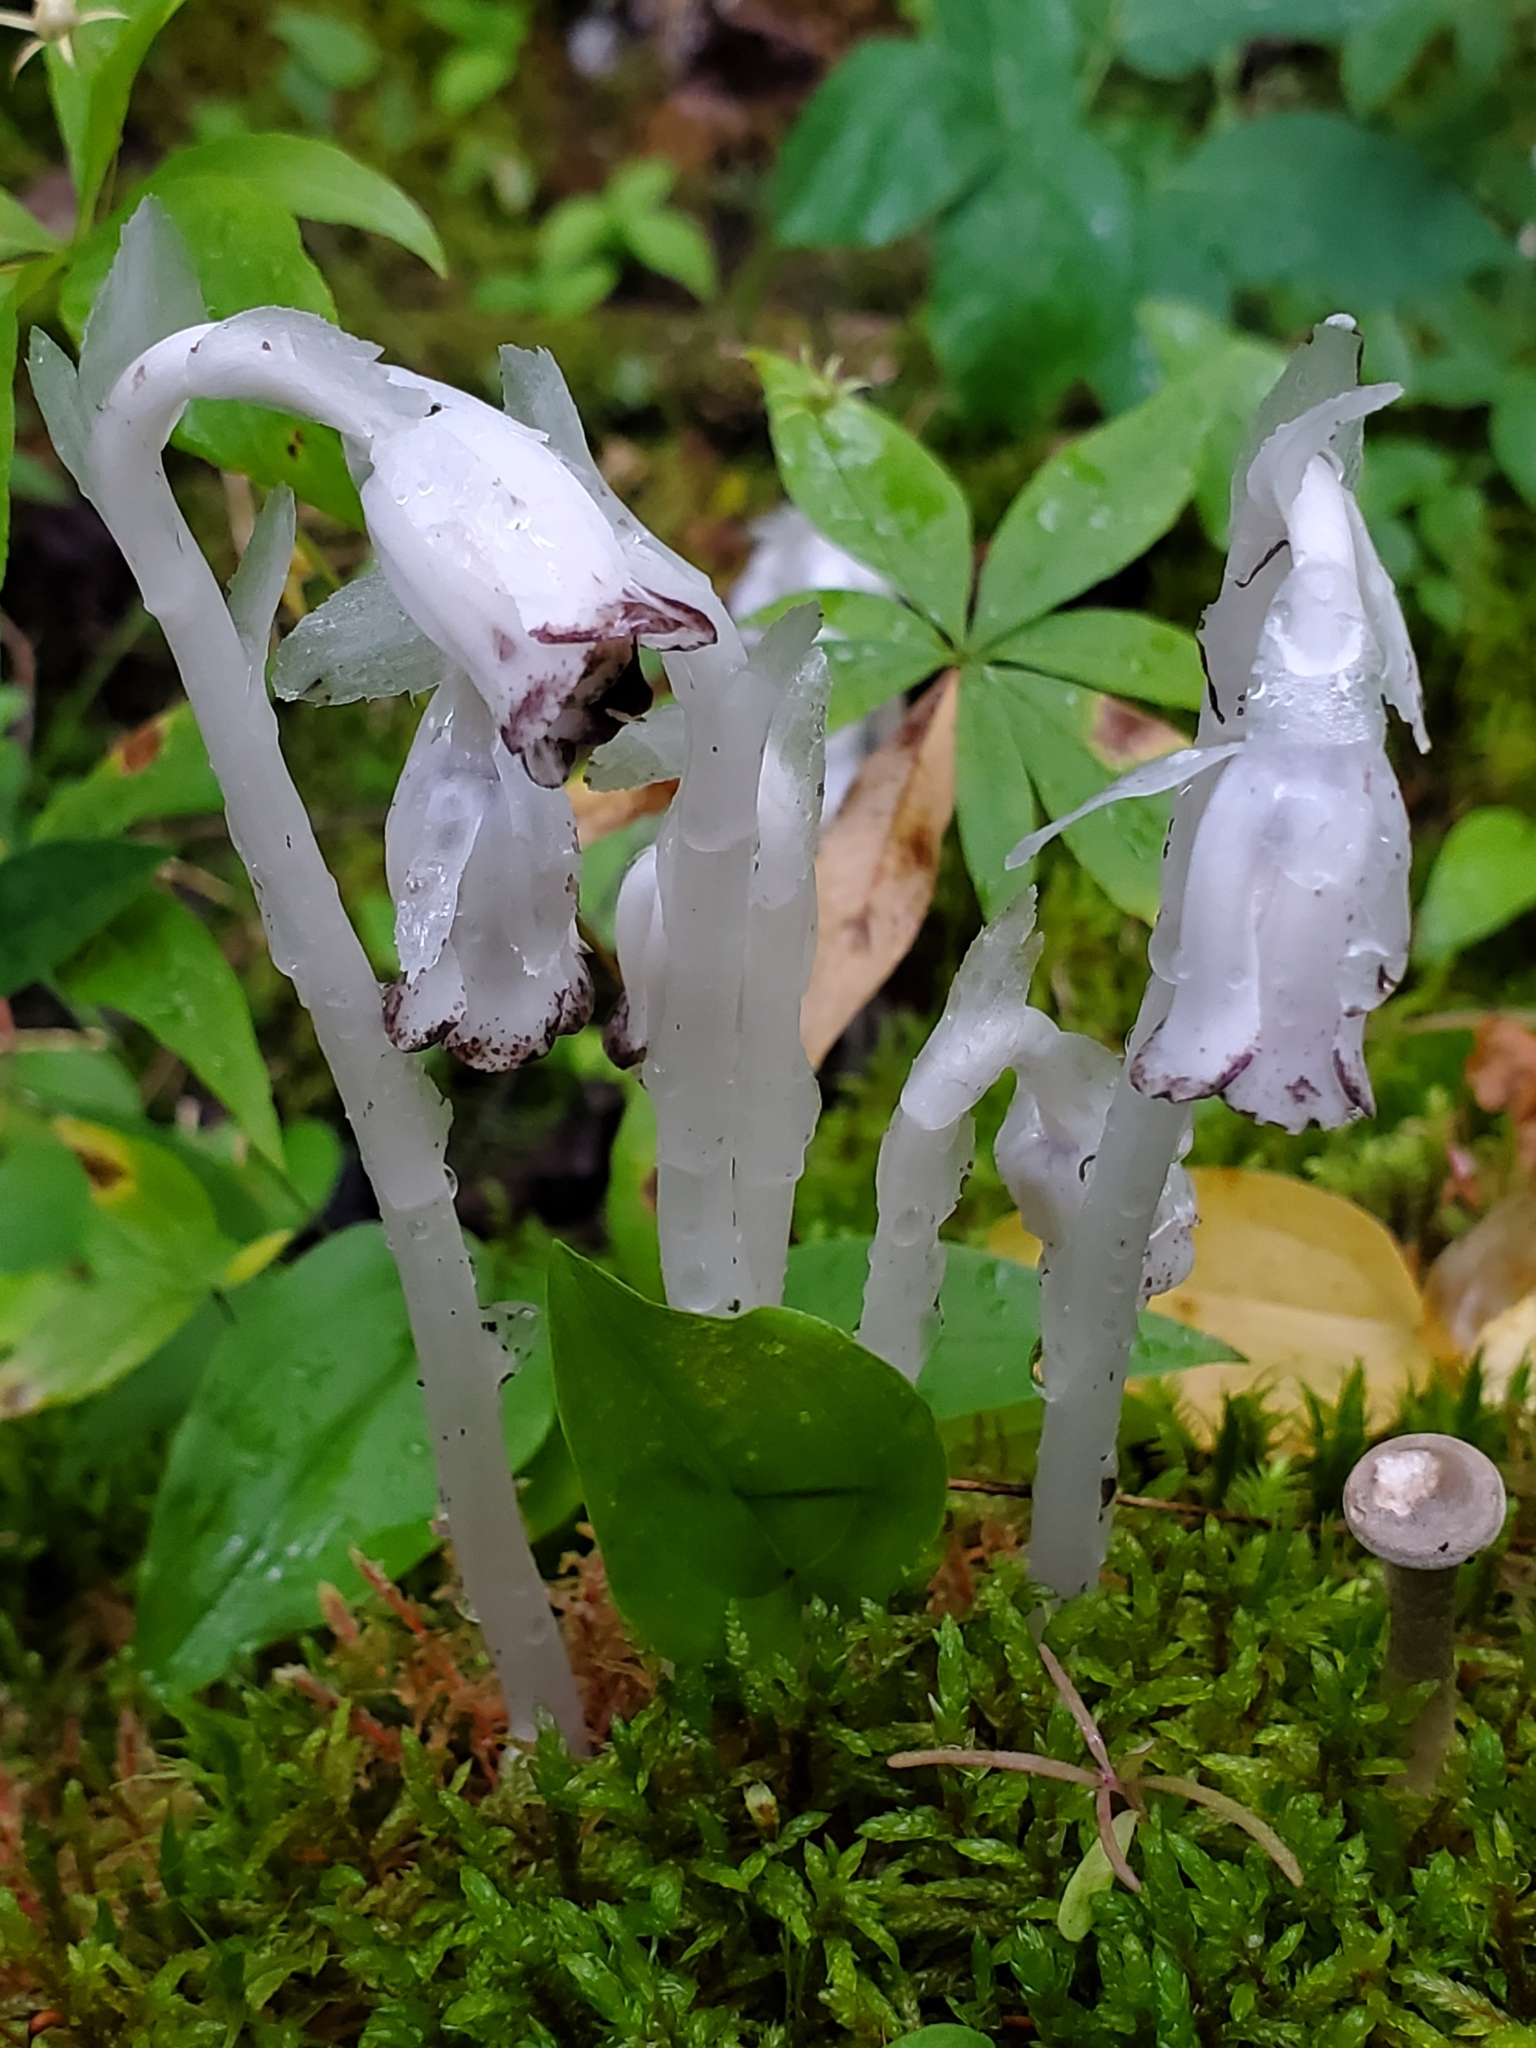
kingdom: Plantae
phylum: Tracheophyta
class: Magnoliopsida
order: Ericales
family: Ericaceae
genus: Monotropa
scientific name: Monotropa uniflora
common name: Convulsion root
